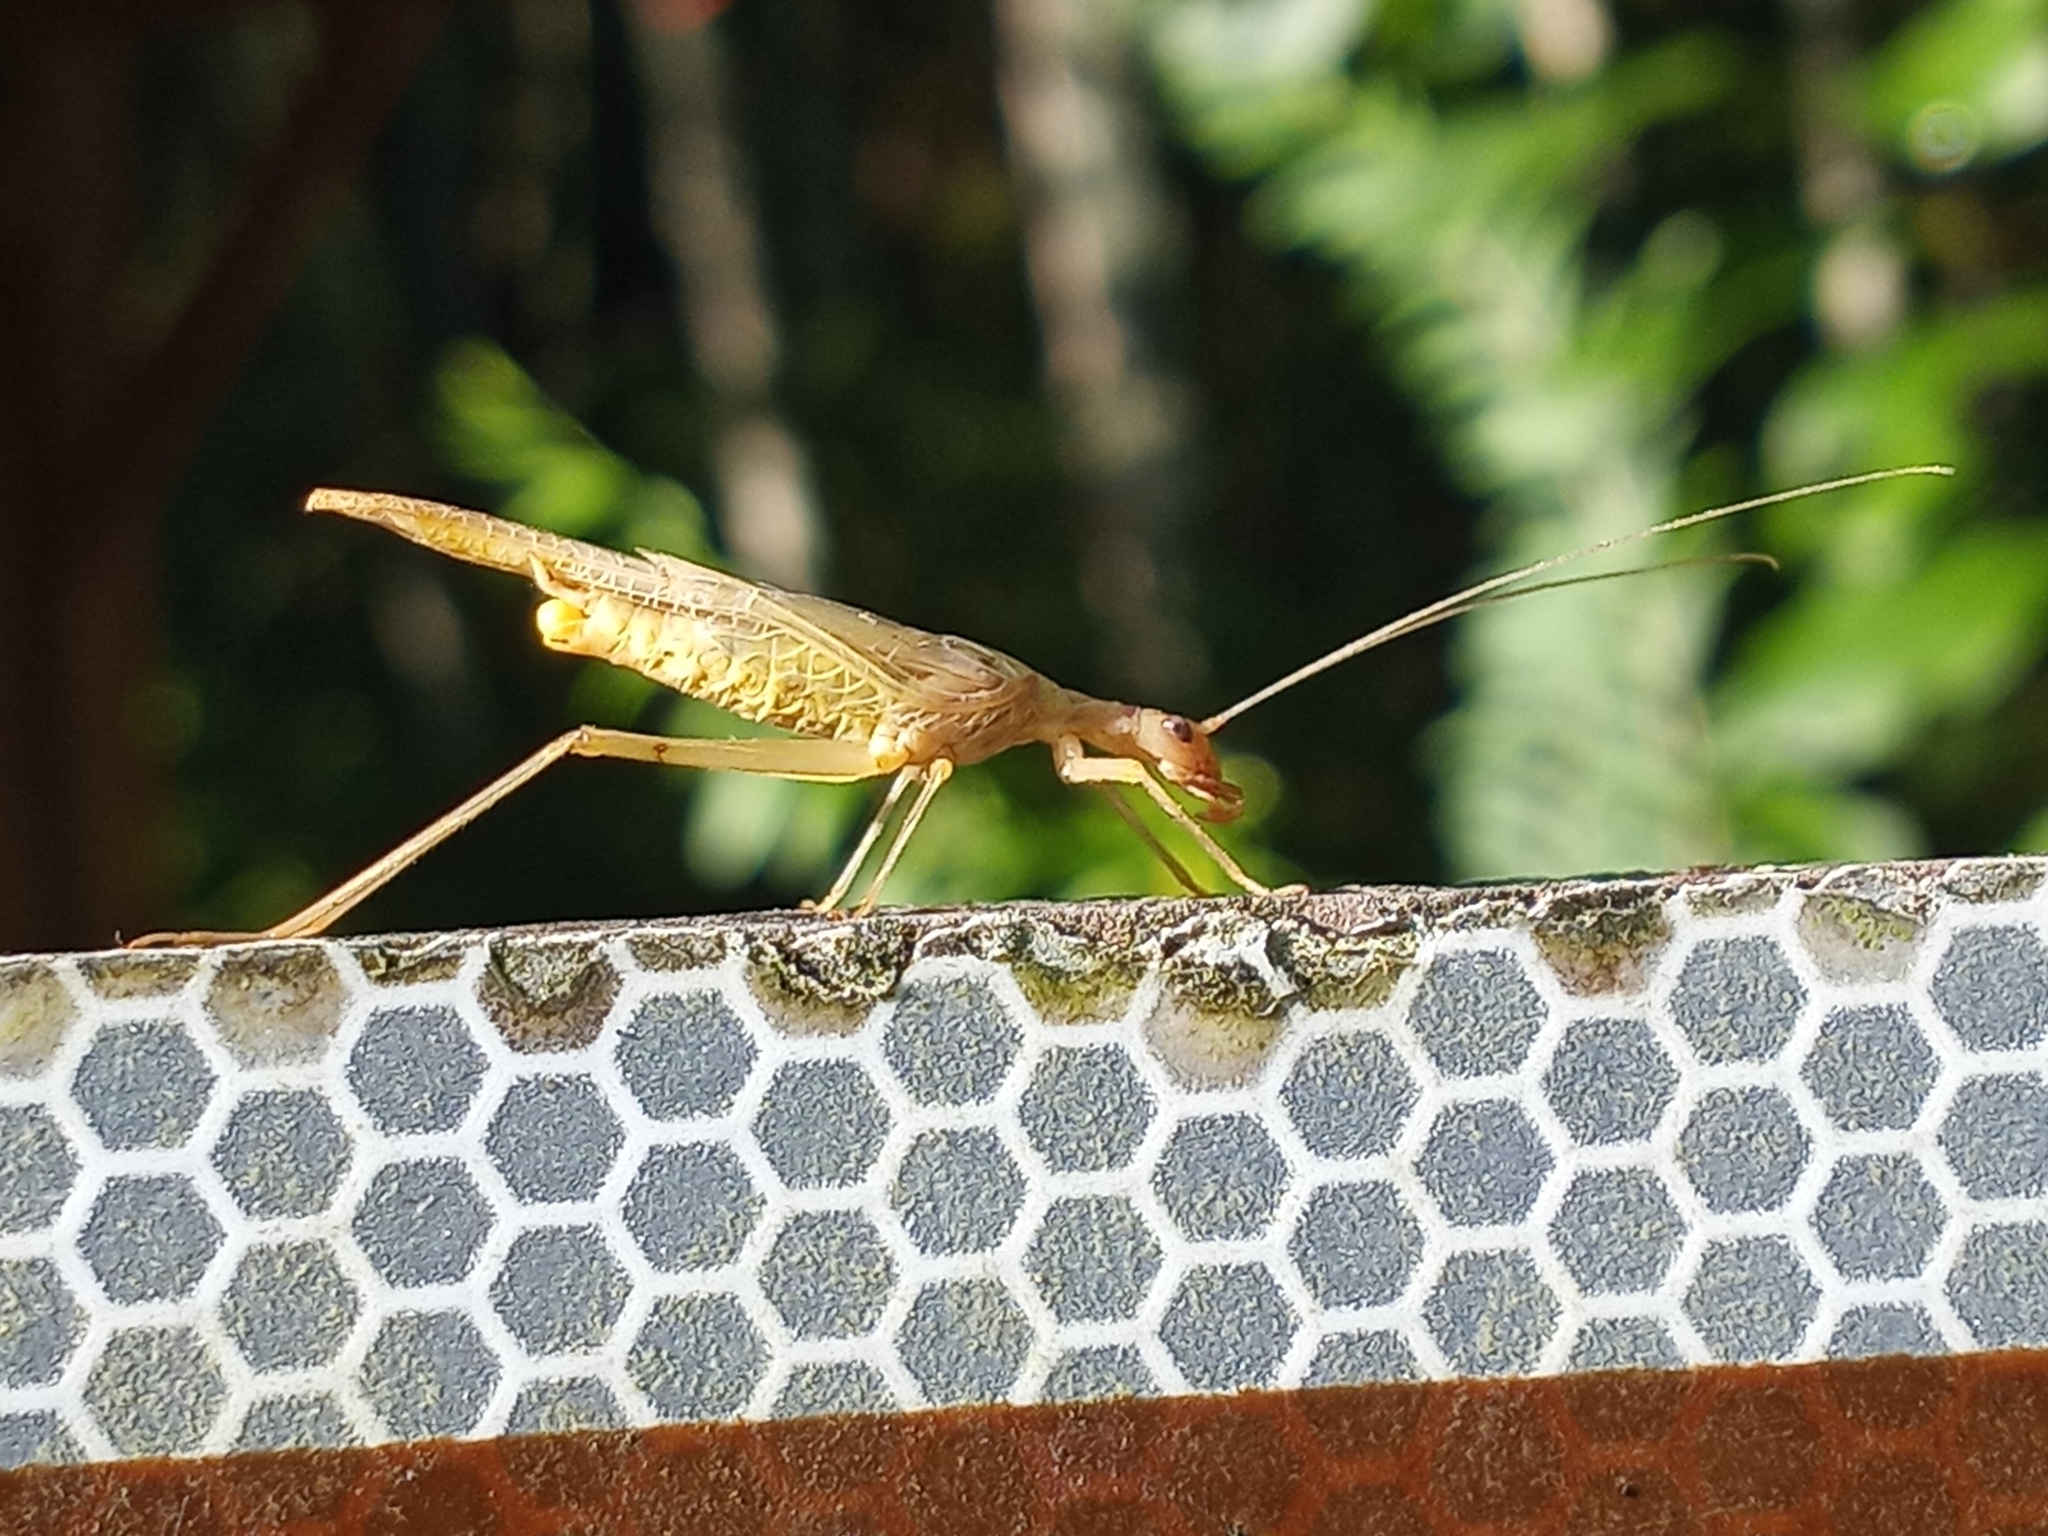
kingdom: Animalia
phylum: Arthropoda
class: Insecta
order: Orthoptera
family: Gryllidae
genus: Neoxabea
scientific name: Neoxabea bipunctata
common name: Two-spotted tree cricket
